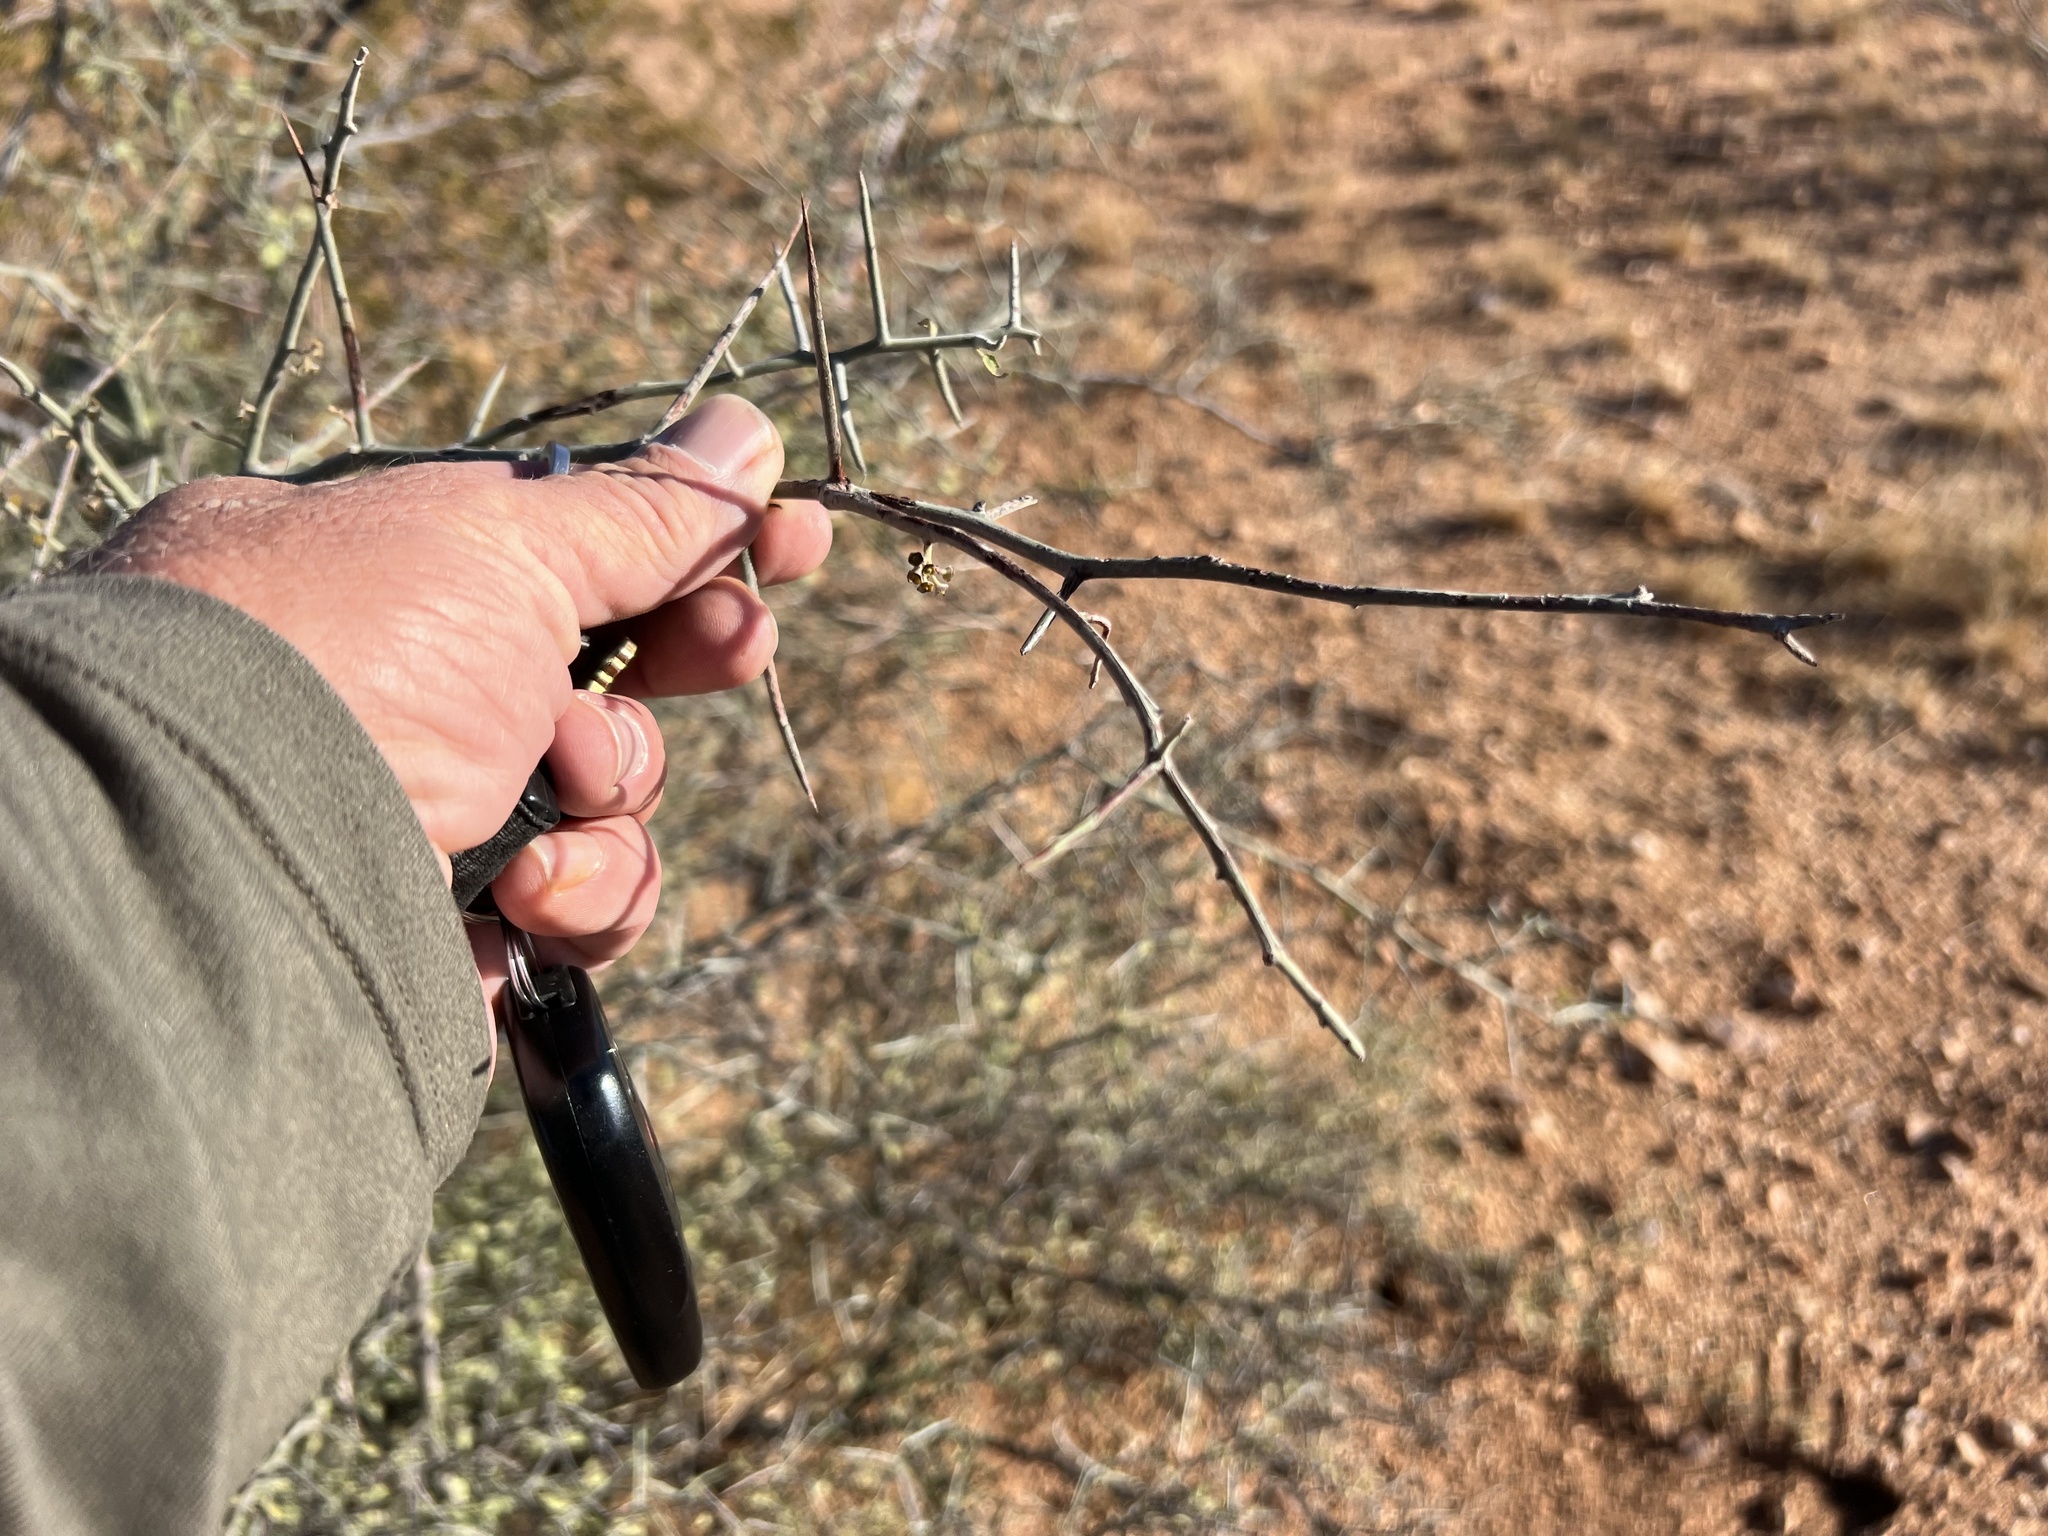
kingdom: Plantae
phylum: Tracheophyta
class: Magnoliopsida
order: Rosales
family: Rhamnaceae
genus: Sarcomphalus
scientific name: Sarcomphalus obtusifolius
